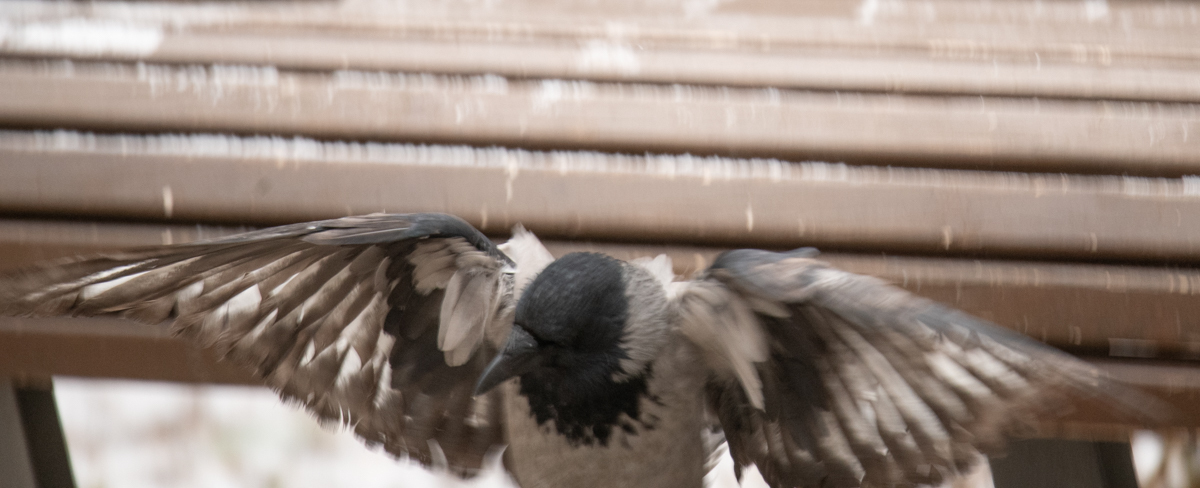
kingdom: Animalia
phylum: Chordata
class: Aves
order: Passeriformes
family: Corvidae
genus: Corvus
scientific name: Corvus cornix
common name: Hooded crow
